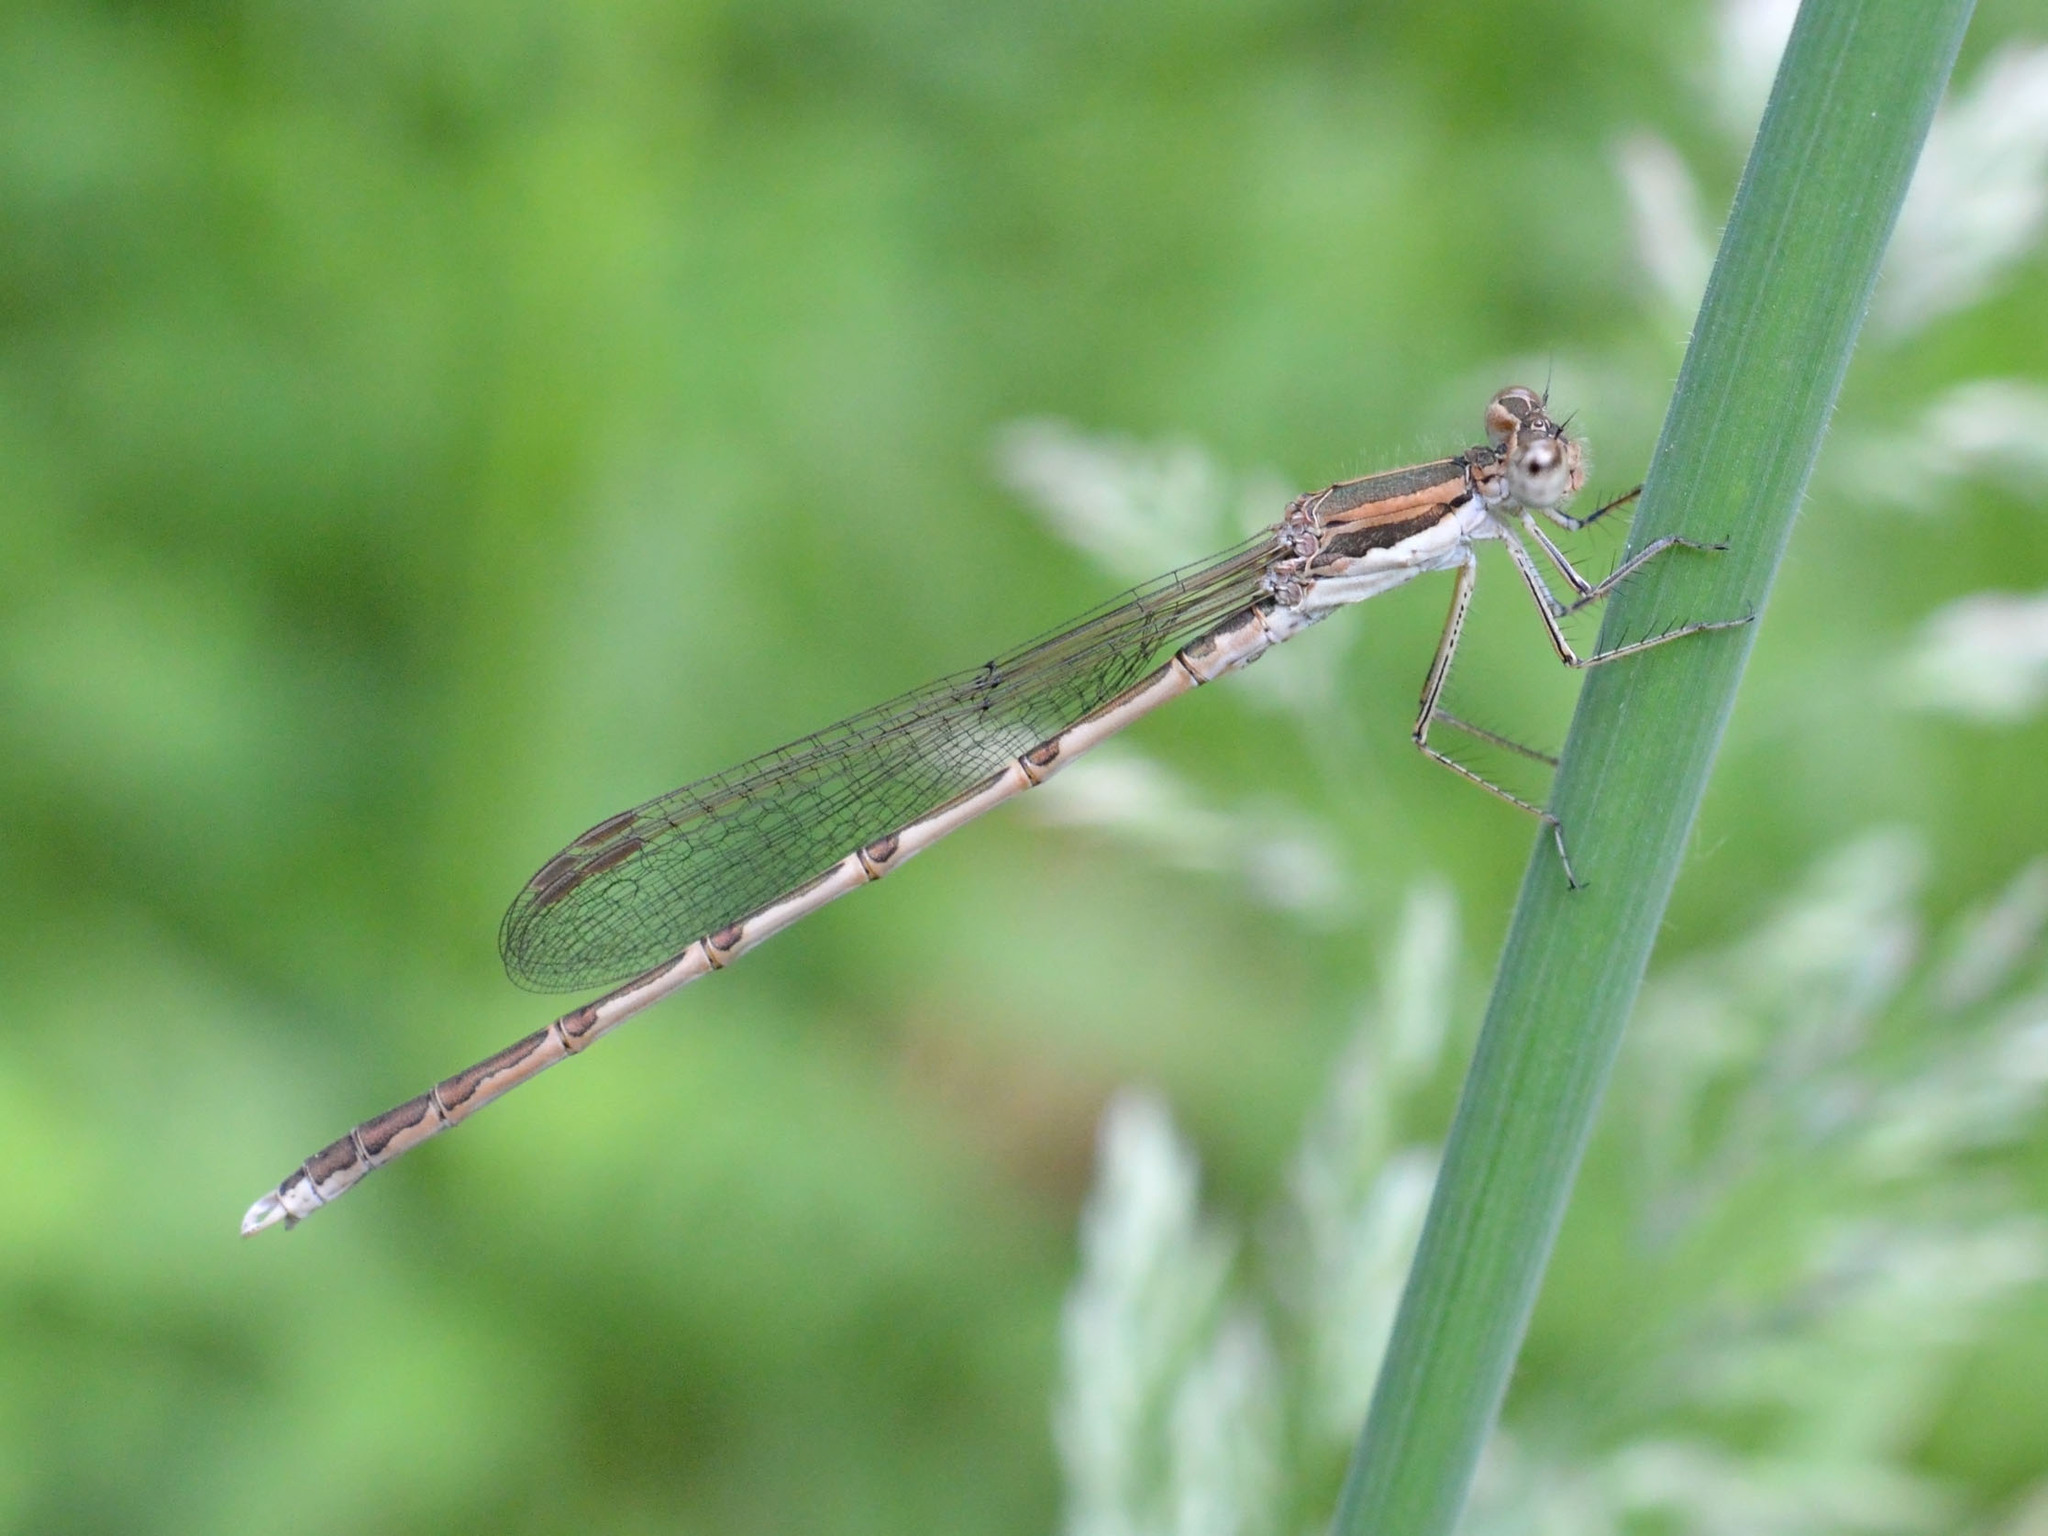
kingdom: Animalia
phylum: Arthropoda
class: Insecta
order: Odonata
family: Lestidae
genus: Sympecma
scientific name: Sympecma fusca
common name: Common winter damsel
